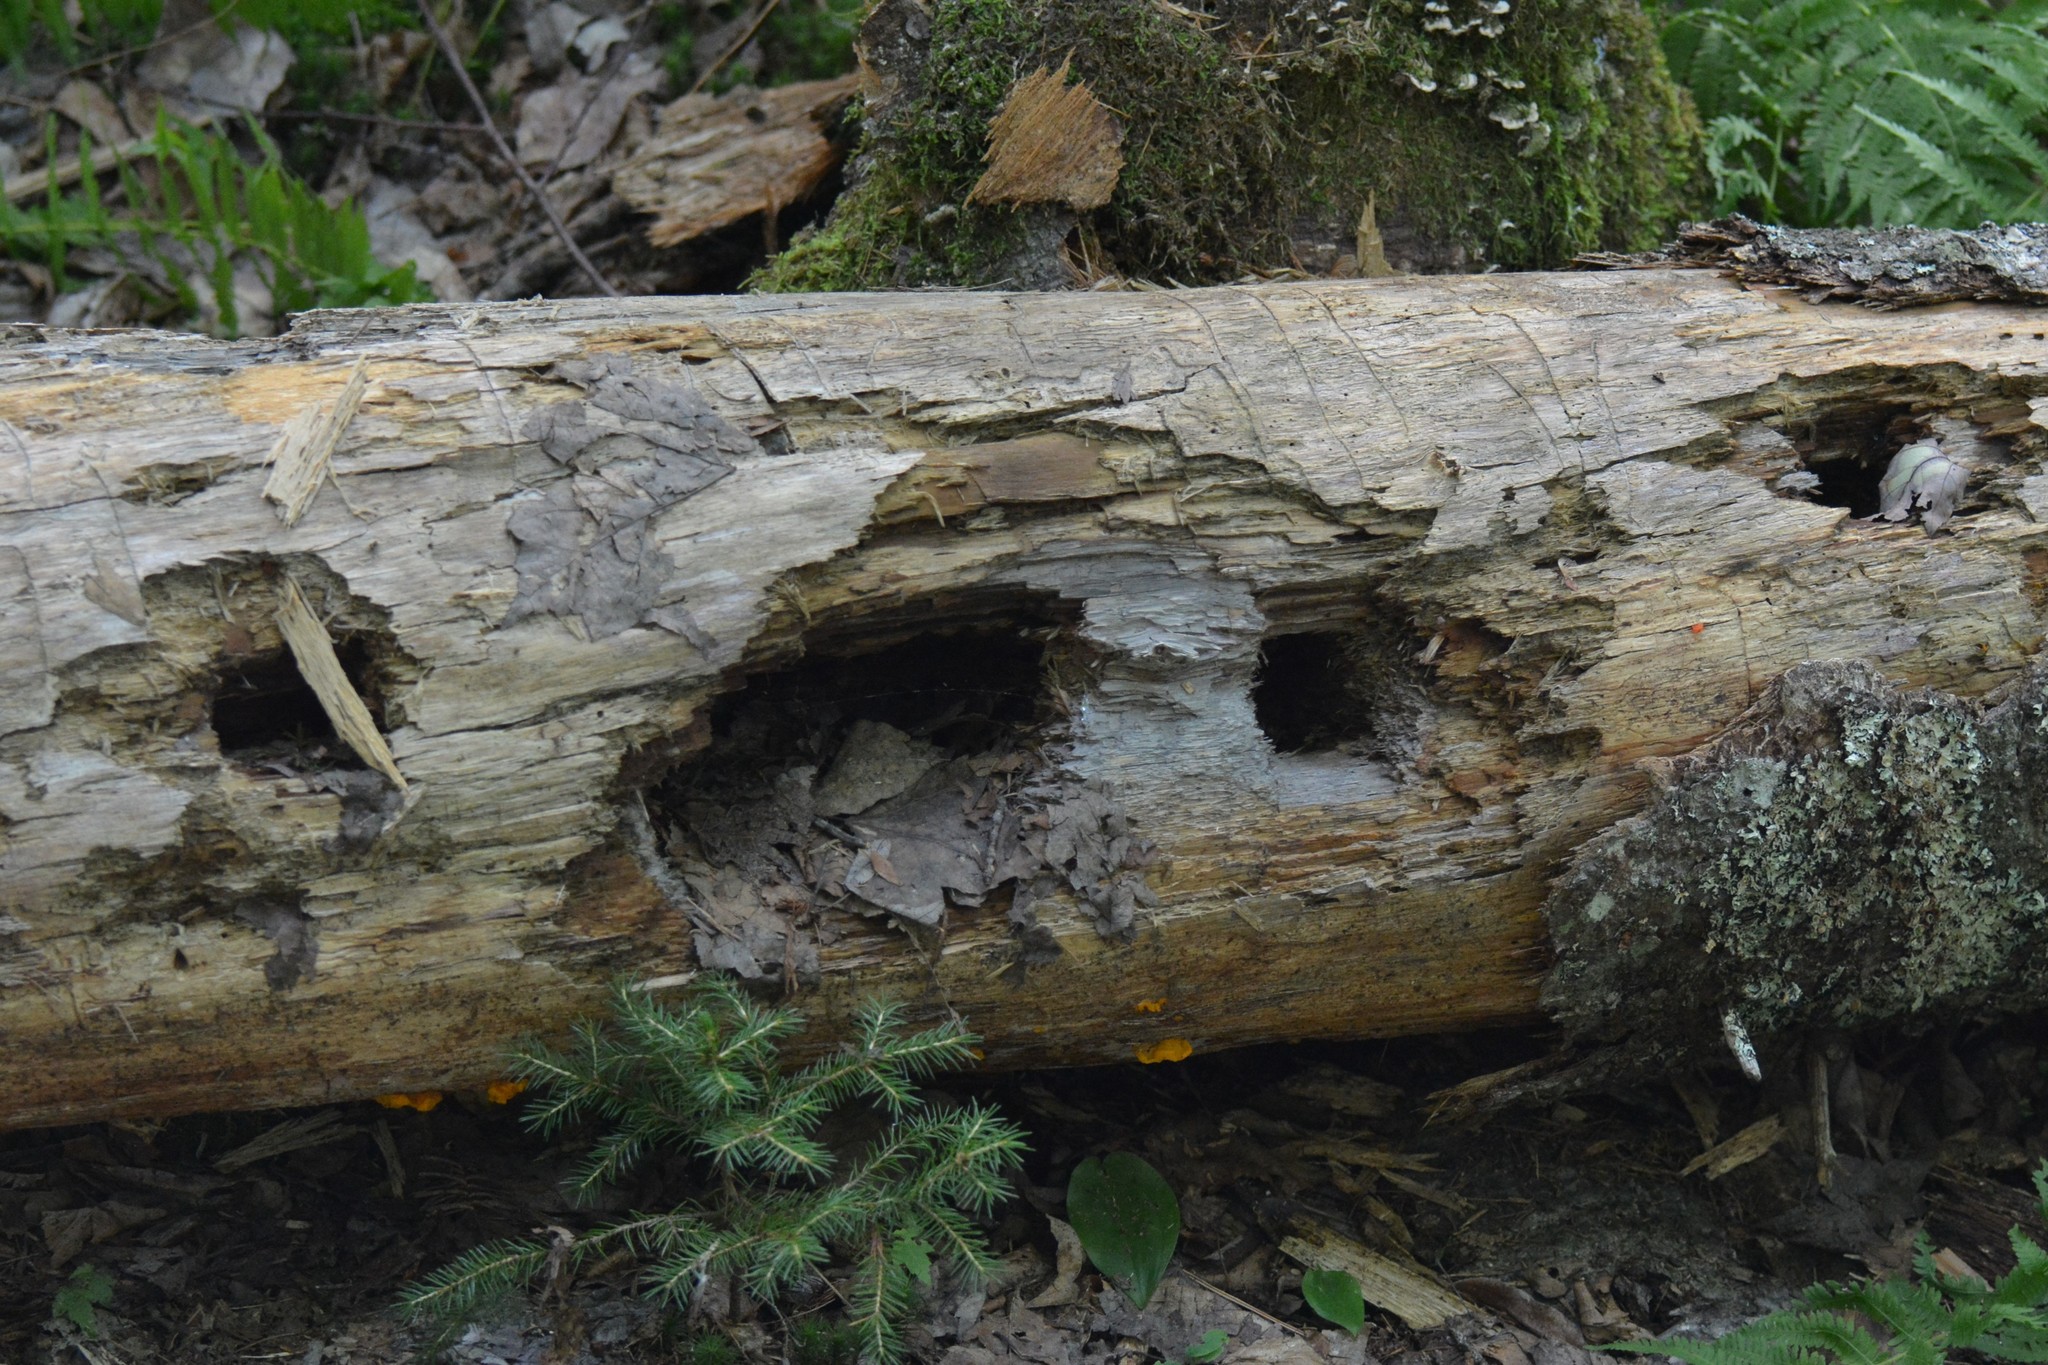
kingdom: Animalia
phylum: Chordata
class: Aves
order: Piciformes
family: Picidae
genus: Dryocopus
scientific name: Dryocopus pileatus
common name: Pileated woodpecker
